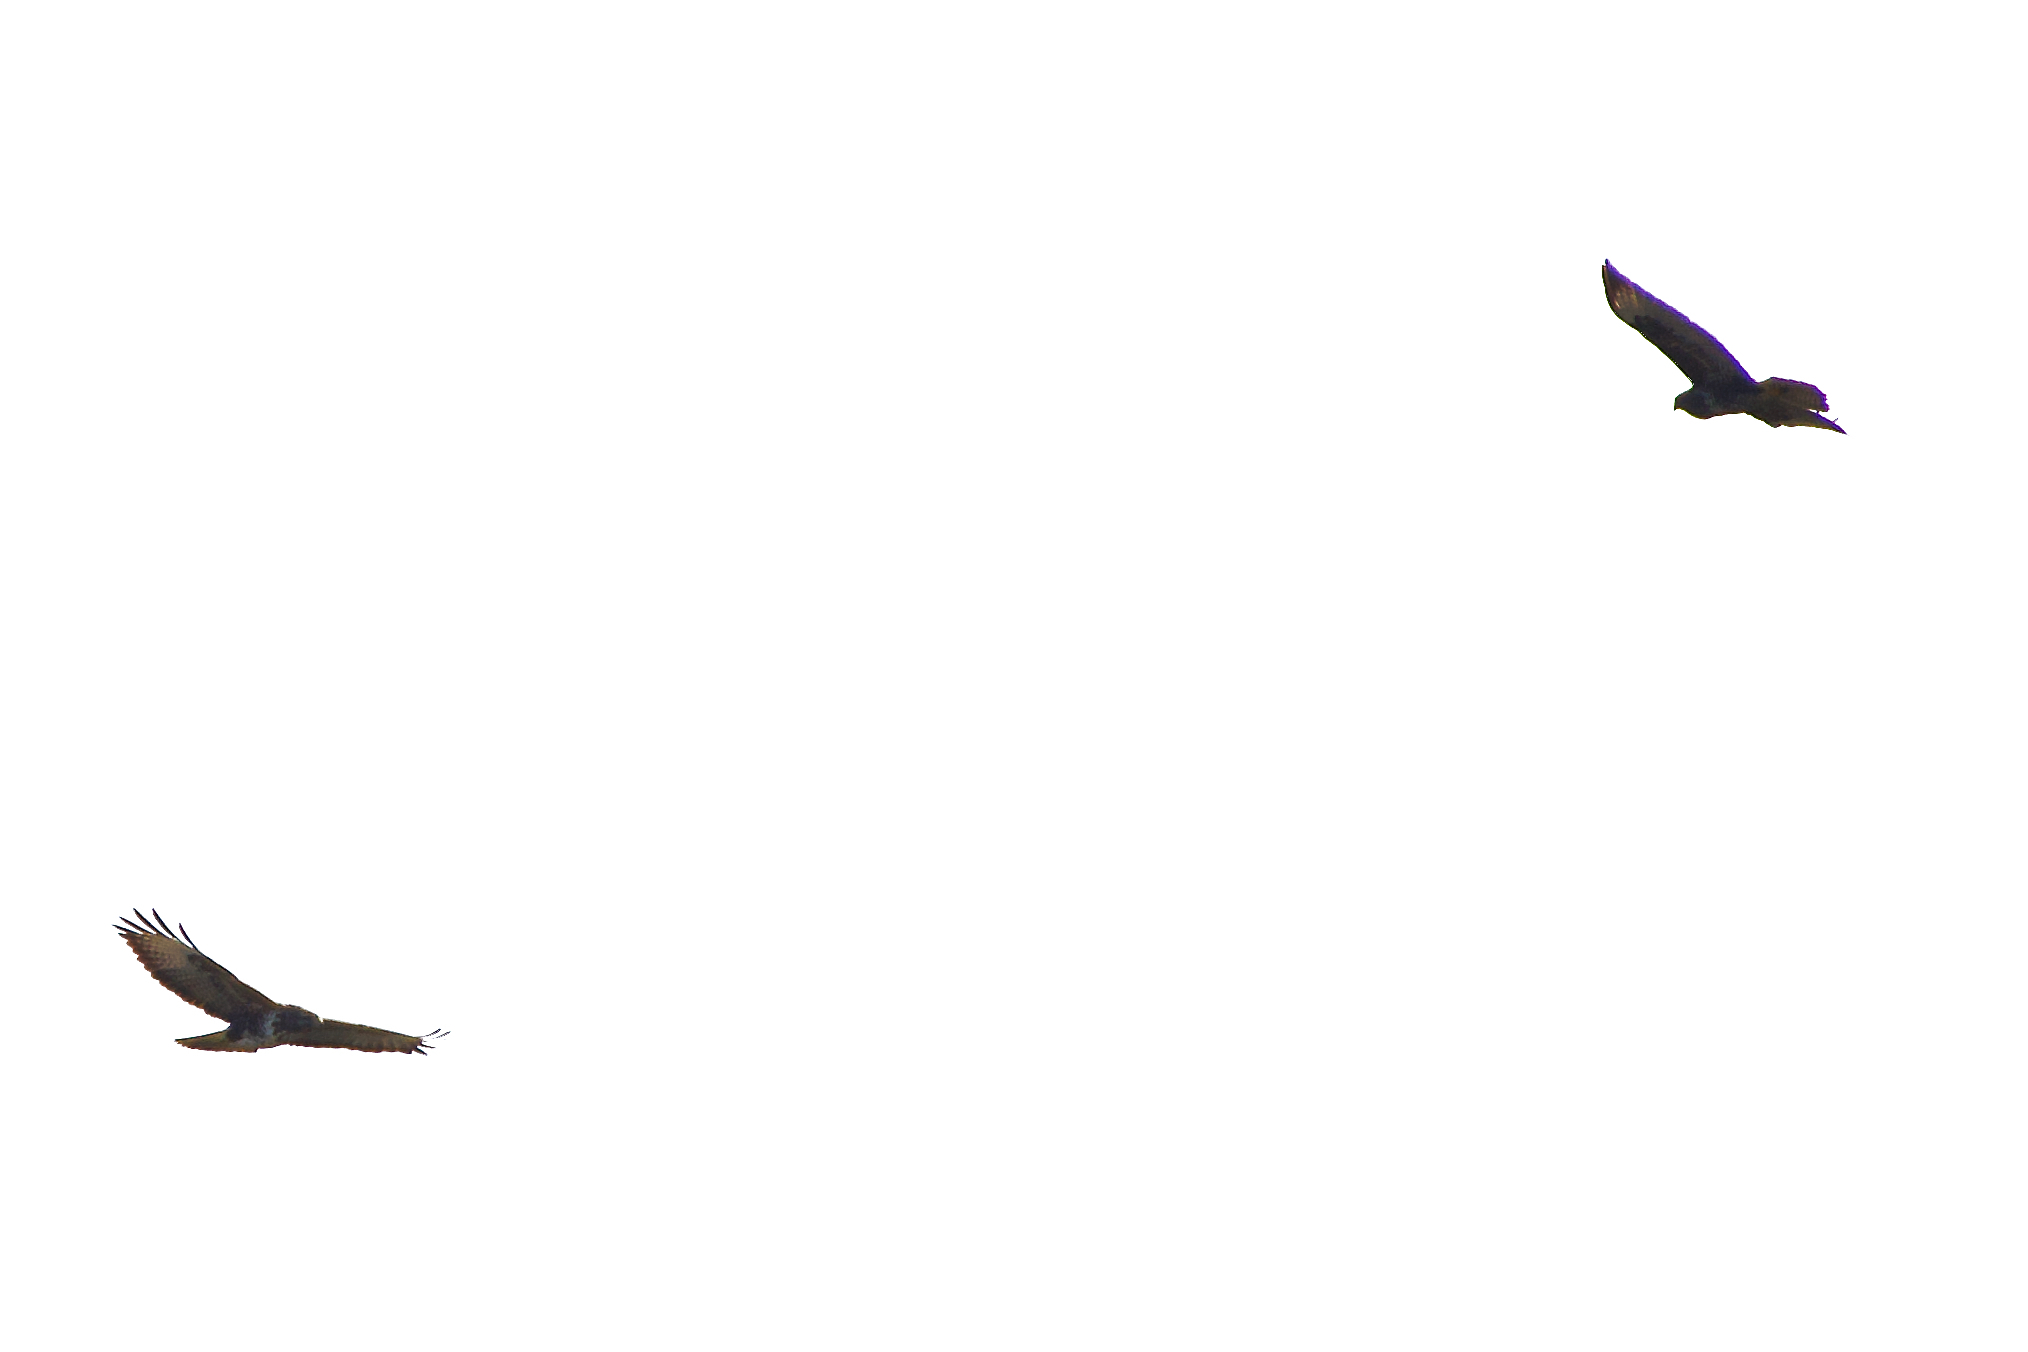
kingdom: Animalia
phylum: Chordata
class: Aves
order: Accipitriformes
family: Accipitridae
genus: Buteo
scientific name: Buteo buteo
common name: Common buzzard
